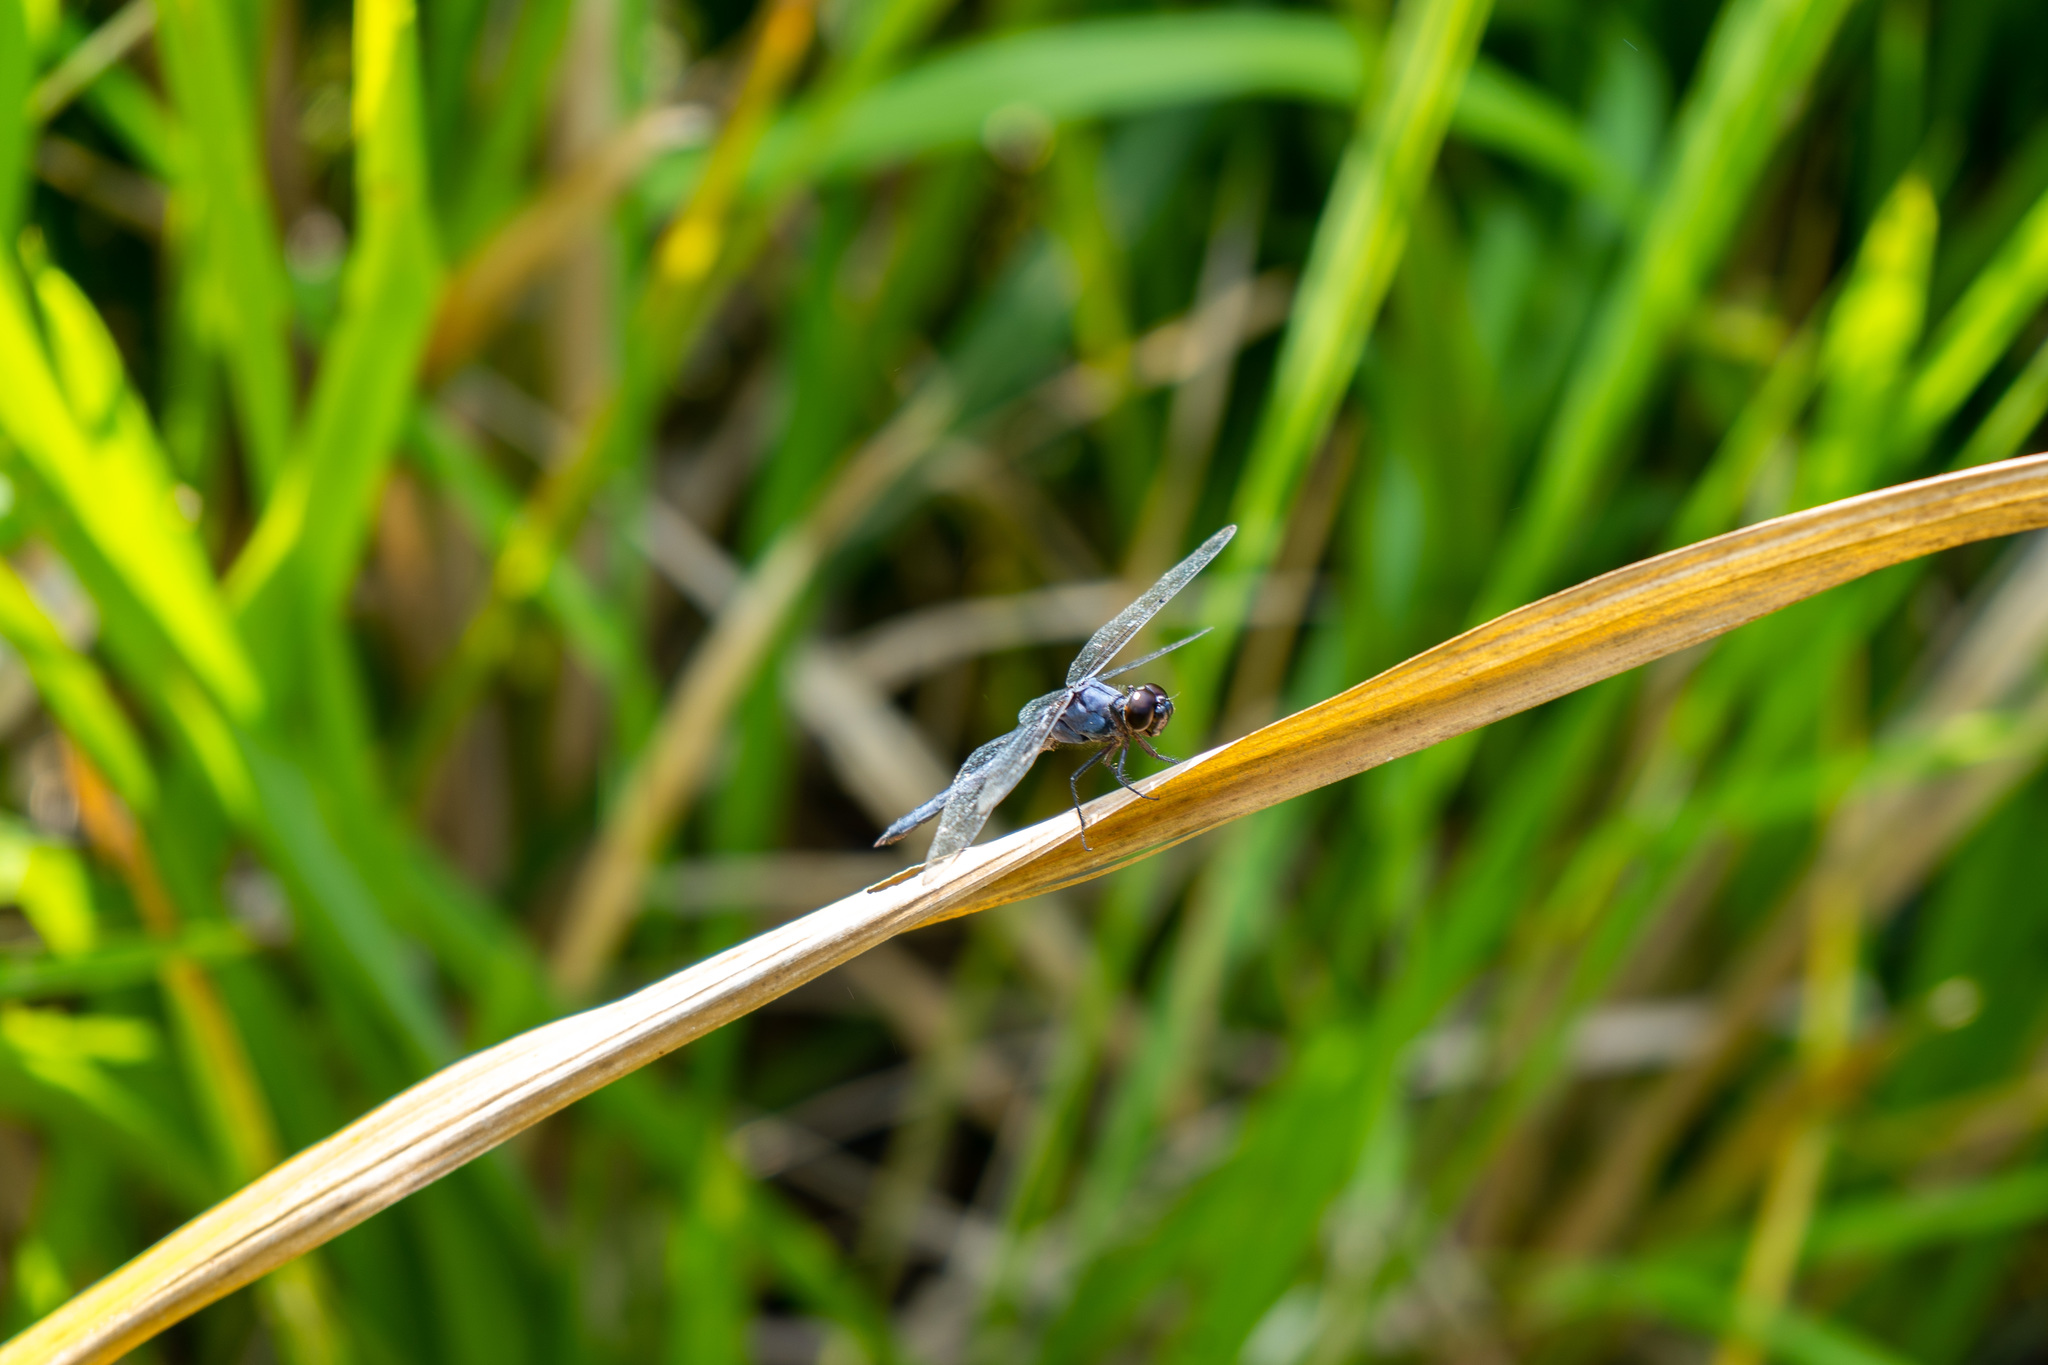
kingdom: Animalia
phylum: Arthropoda
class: Insecta
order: Odonata
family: Libellulidae
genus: Erythrodiplax
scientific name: Erythrodiplax minuscula
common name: Little blue dragonlet
